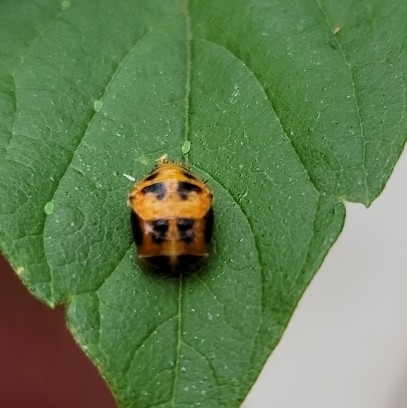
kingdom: Animalia
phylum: Arthropoda
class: Insecta
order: Coleoptera
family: Coccinellidae
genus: Harmonia
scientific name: Harmonia axyridis
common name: Harlequin ladybird
